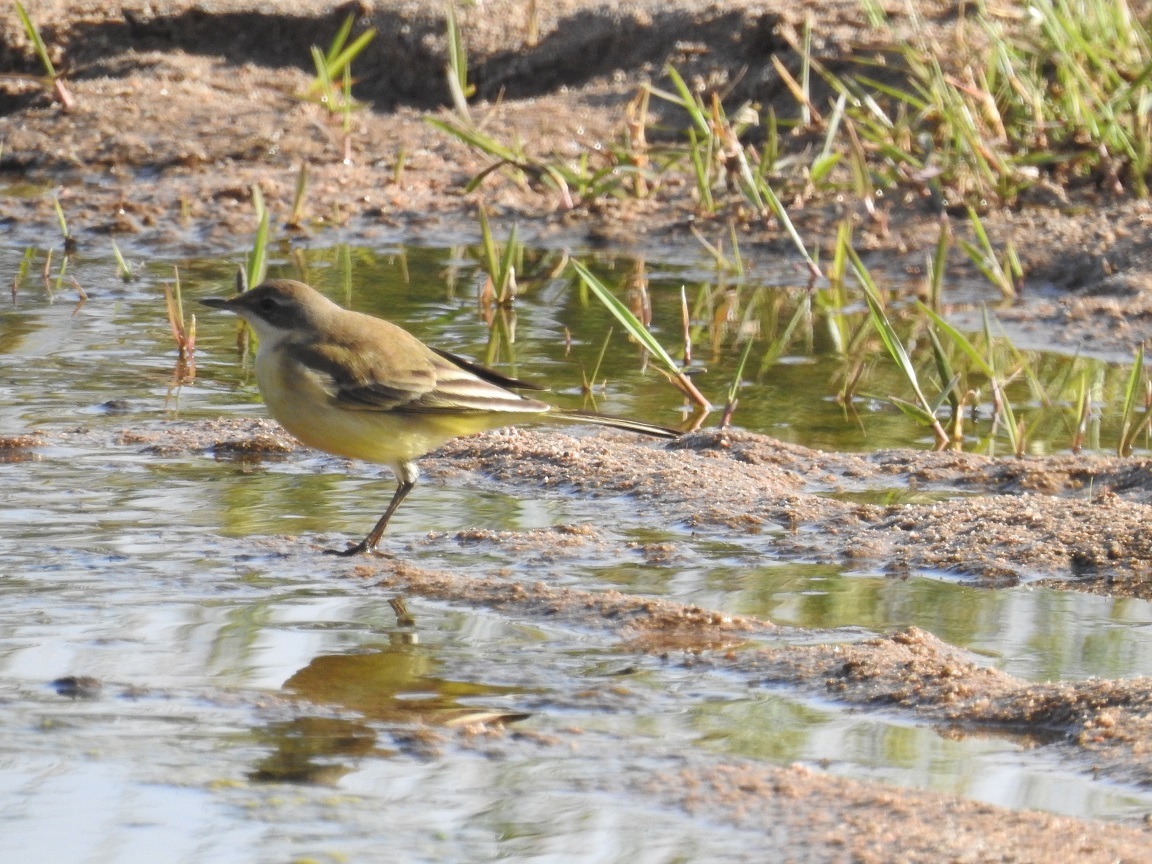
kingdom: Animalia
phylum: Chordata
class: Aves
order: Passeriformes
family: Motacillidae
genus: Motacilla
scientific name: Motacilla flava
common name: Western yellow wagtail
